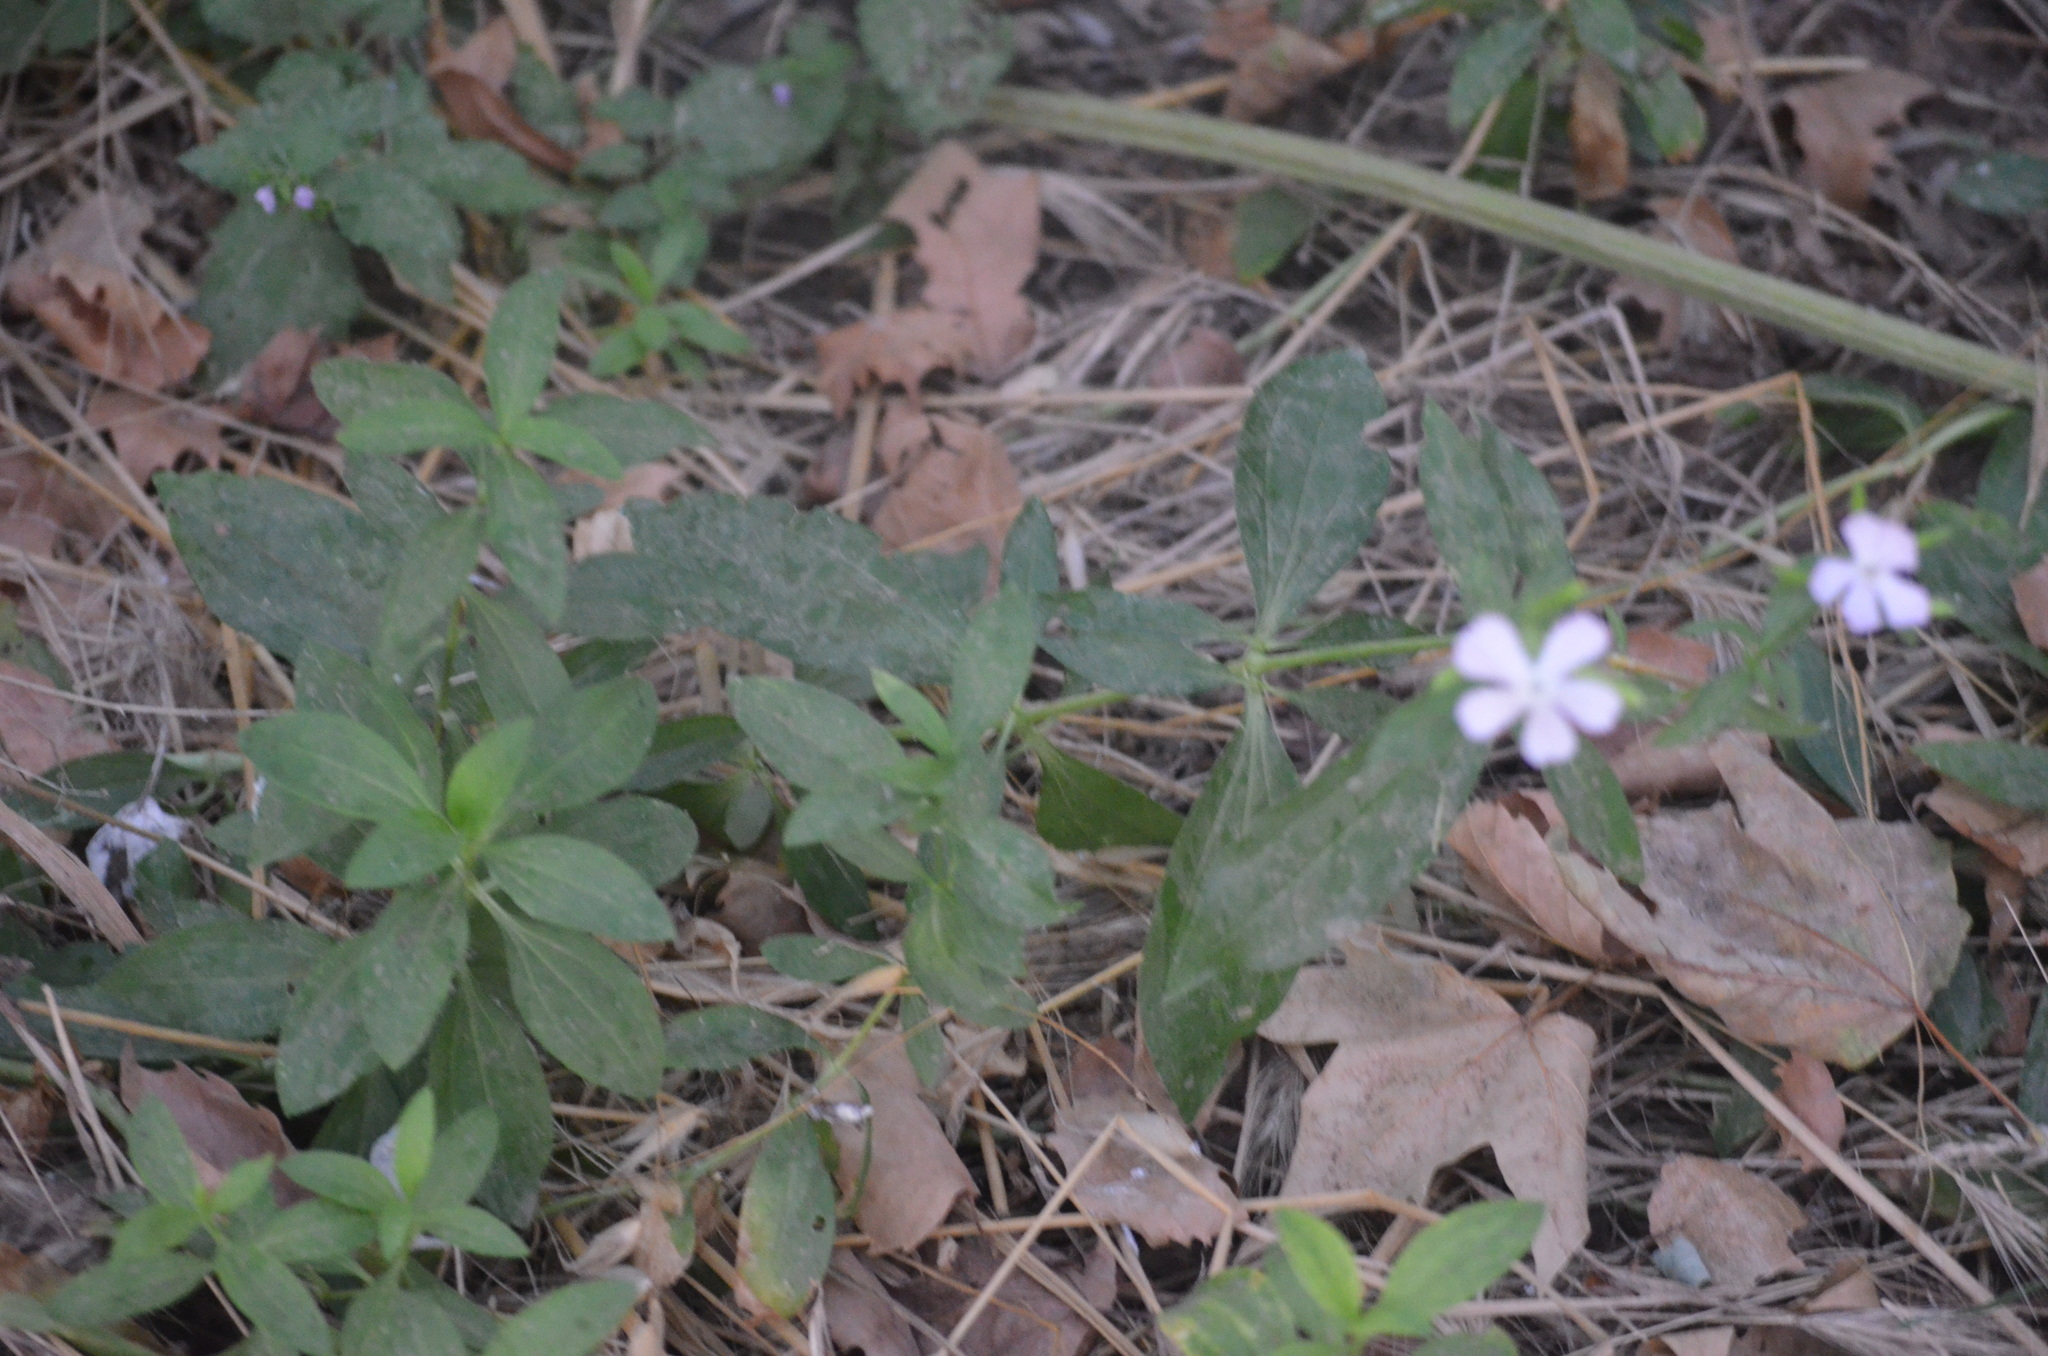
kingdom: Plantae
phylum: Tracheophyta
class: Magnoliopsida
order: Caryophyllales
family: Caryophyllaceae
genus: Saponaria
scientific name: Saponaria officinalis
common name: Soapwort
